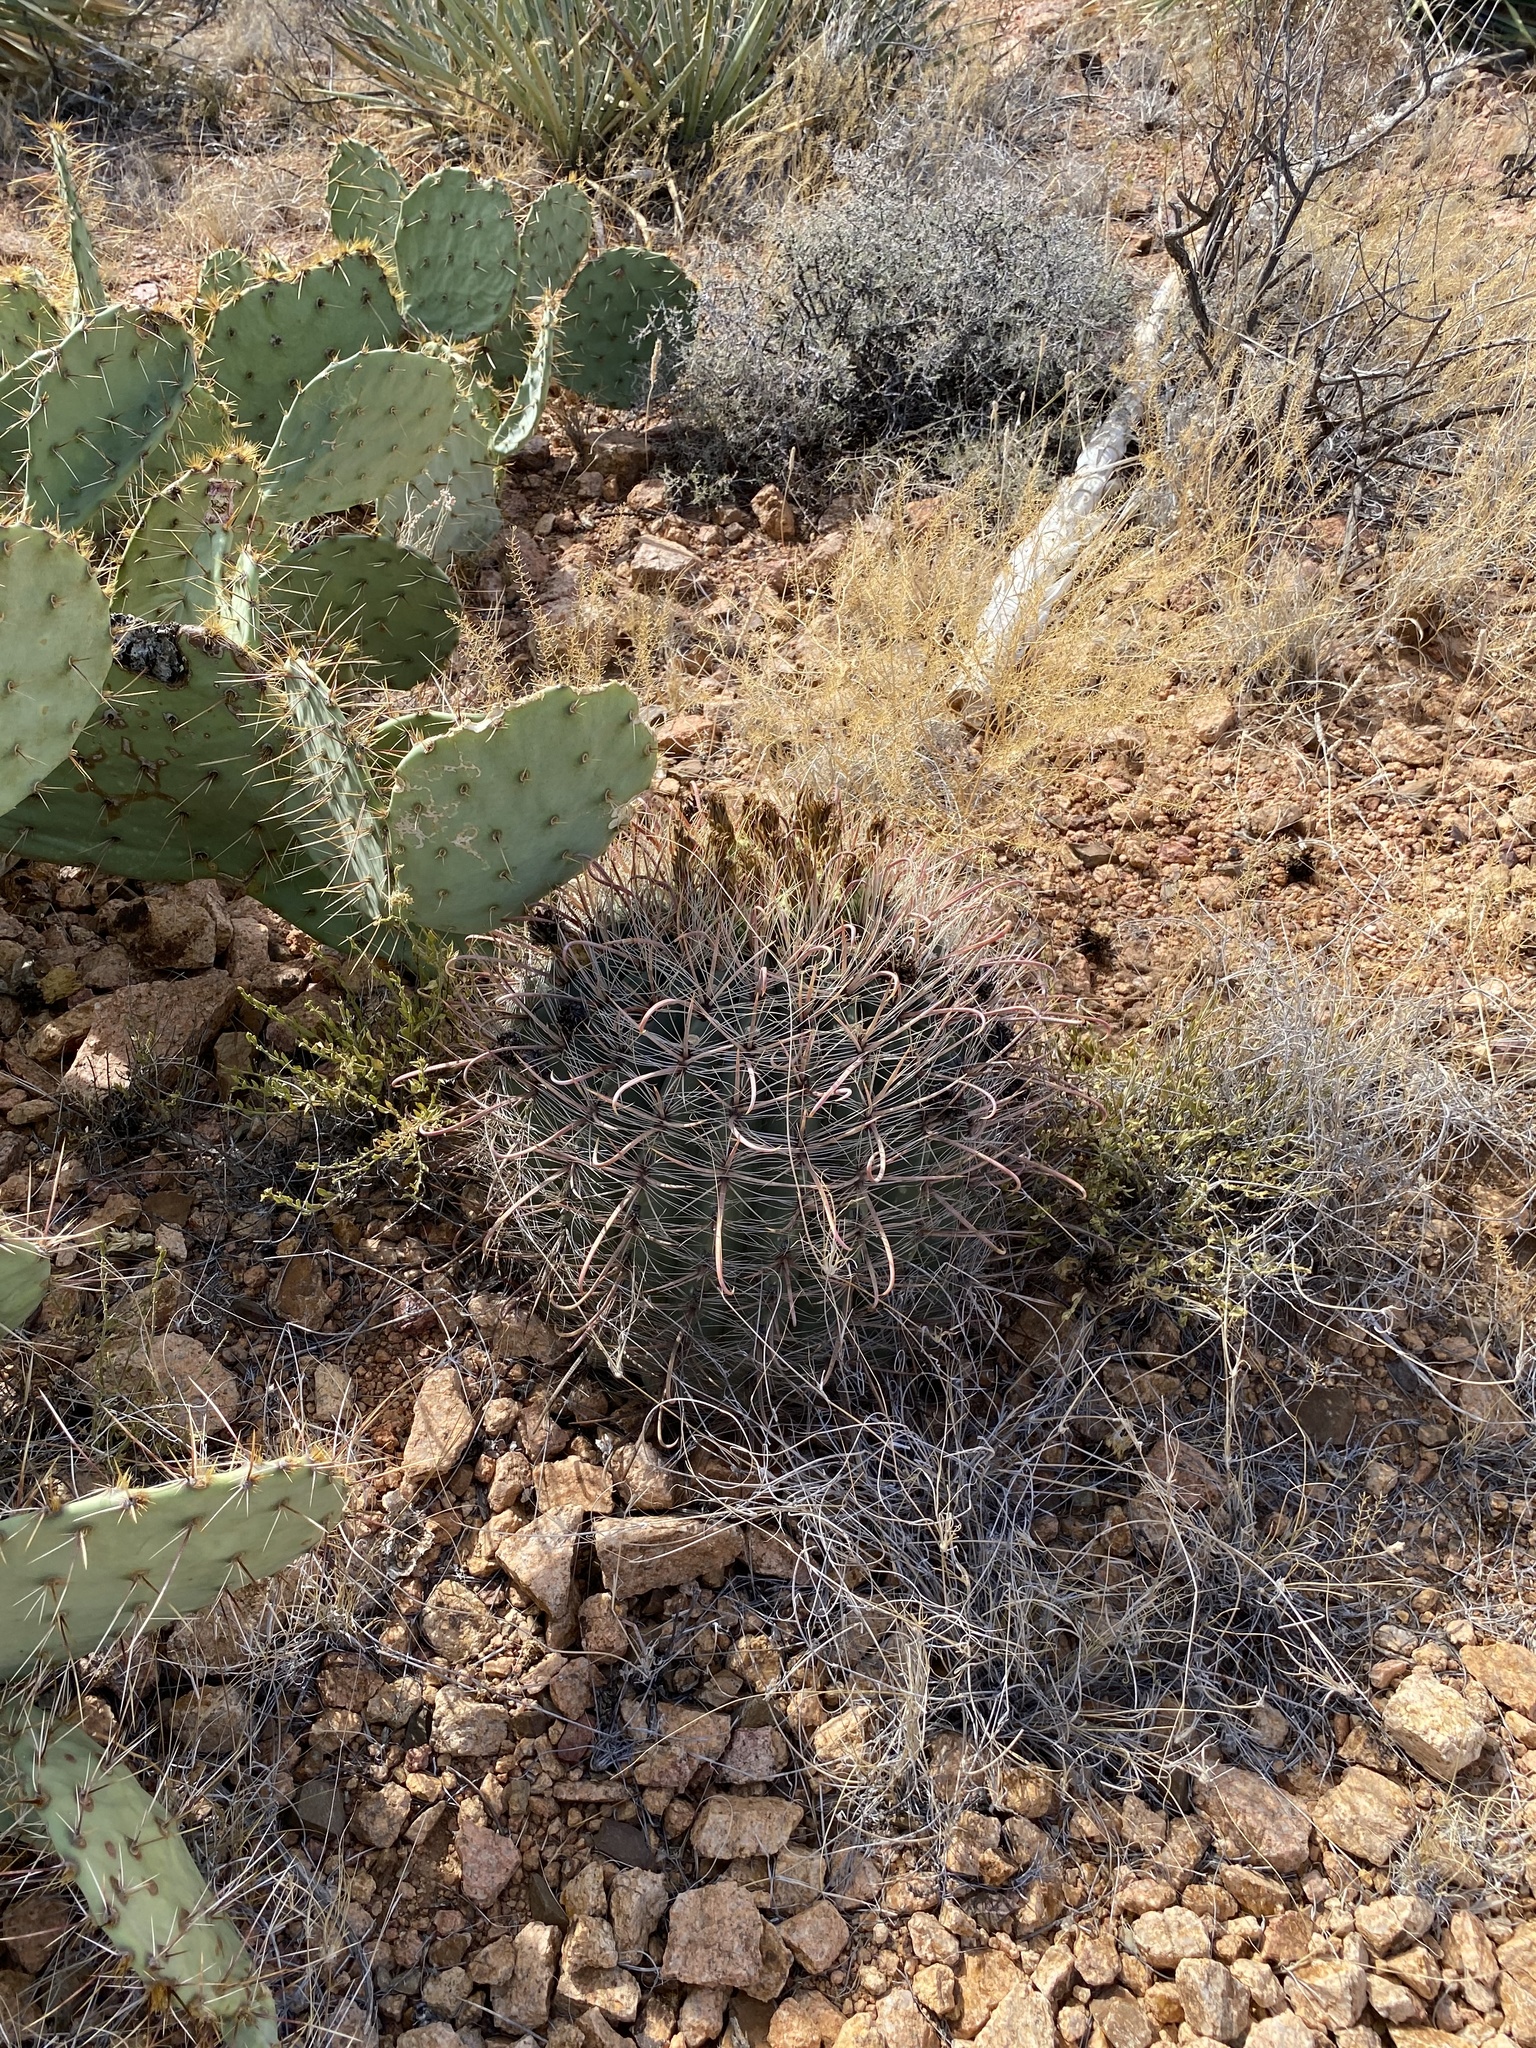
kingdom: Plantae
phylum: Tracheophyta
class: Magnoliopsida
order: Caryophyllales
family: Cactaceae
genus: Ferocactus
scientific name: Ferocactus wislizeni
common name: Candy barrel cactus
